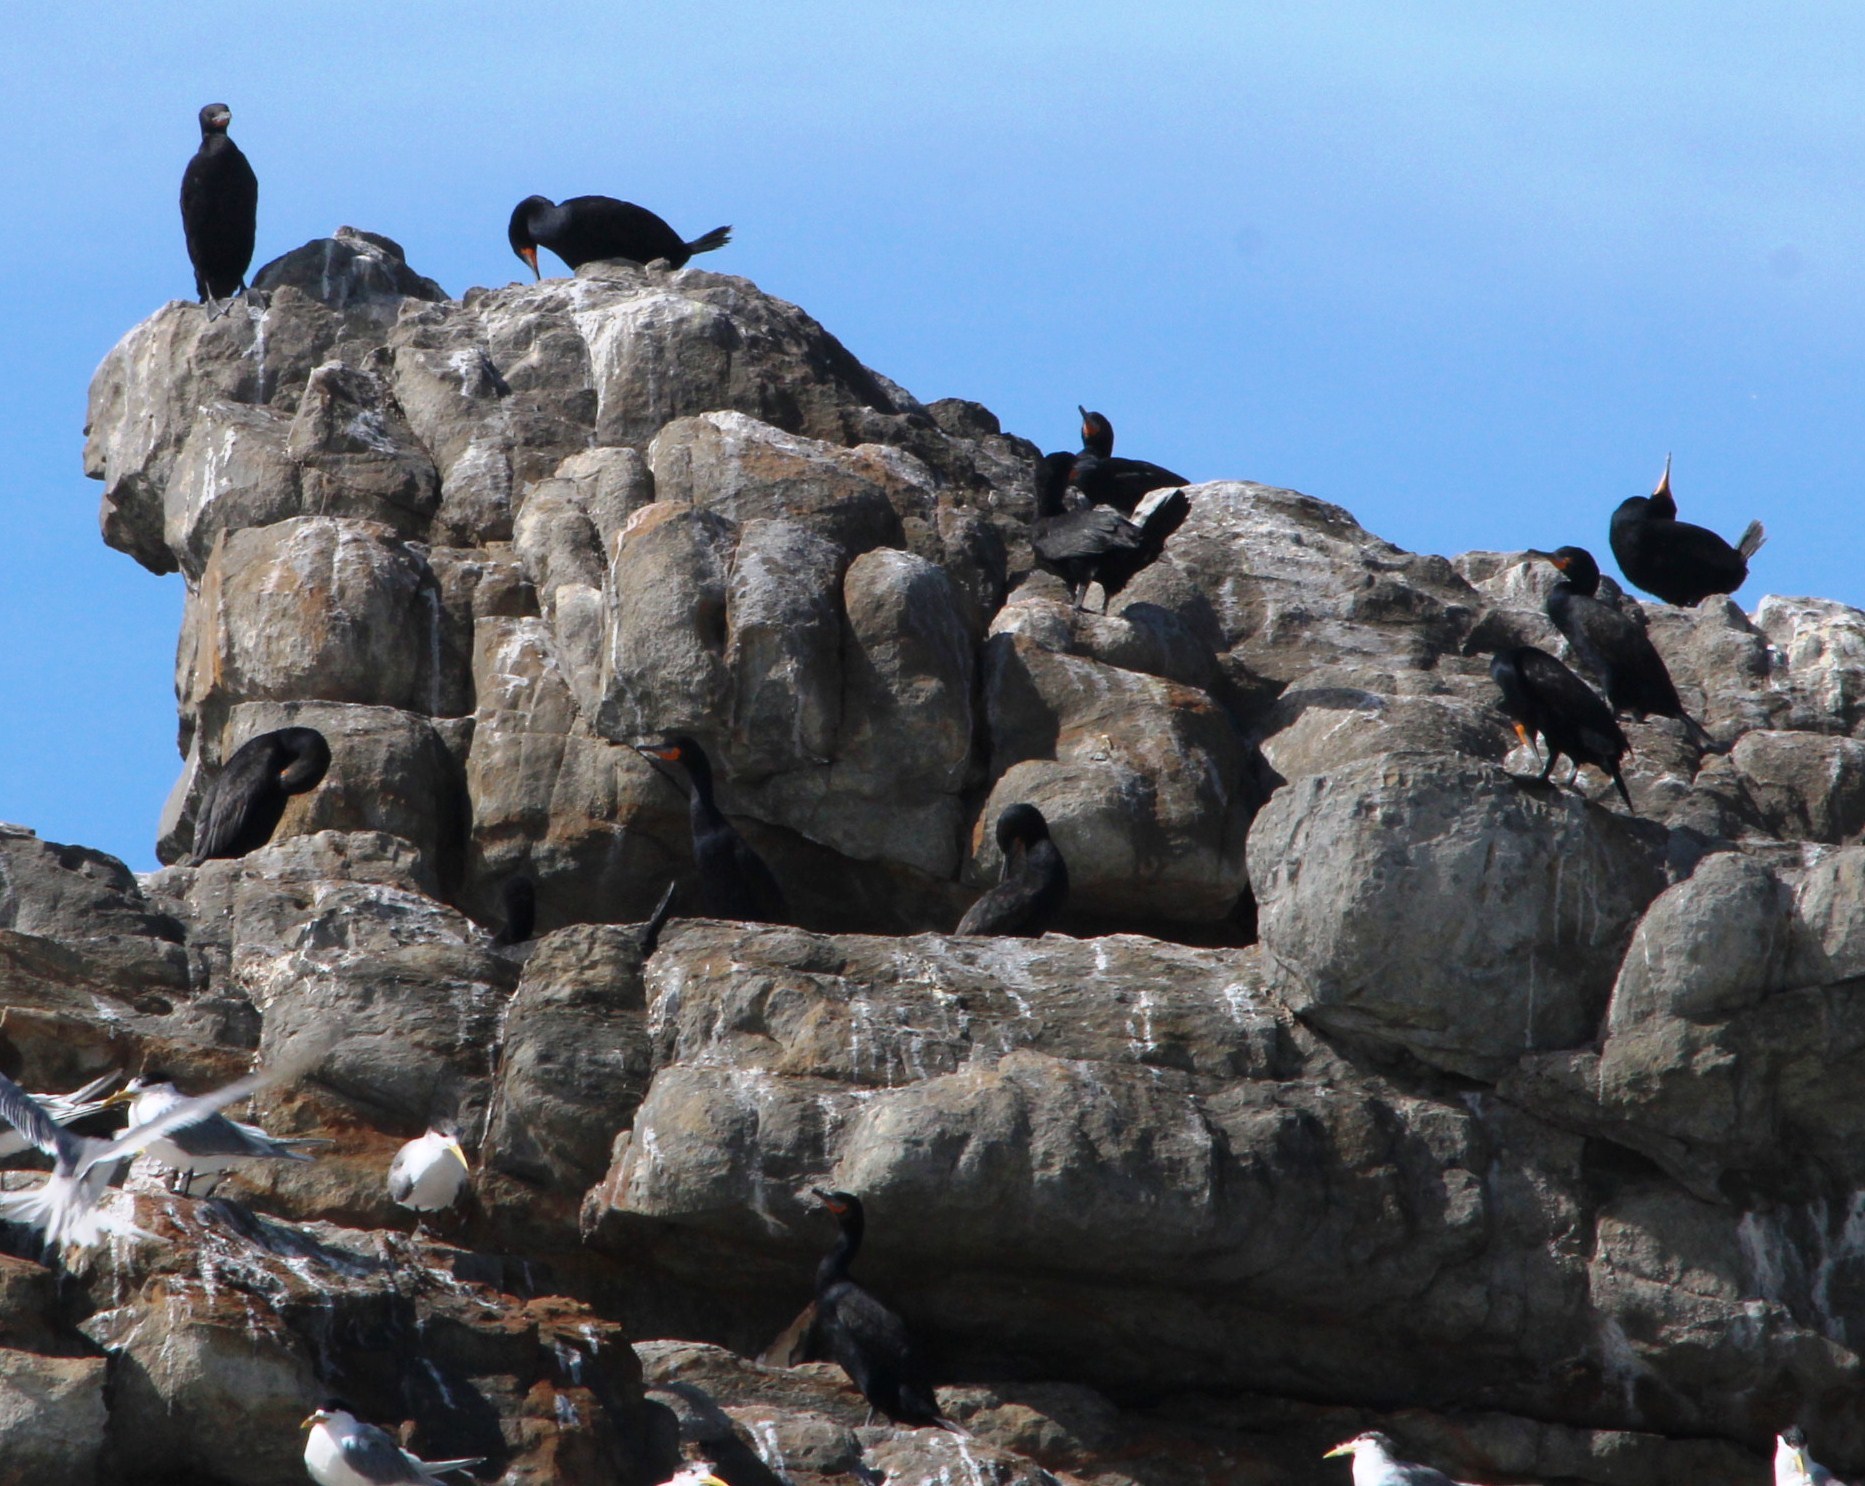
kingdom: Animalia
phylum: Chordata
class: Aves
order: Suliformes
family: Phalacrocoracidae
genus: Phalacrocorax
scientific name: Phalacrocorax capensis
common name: Cape cormorant
